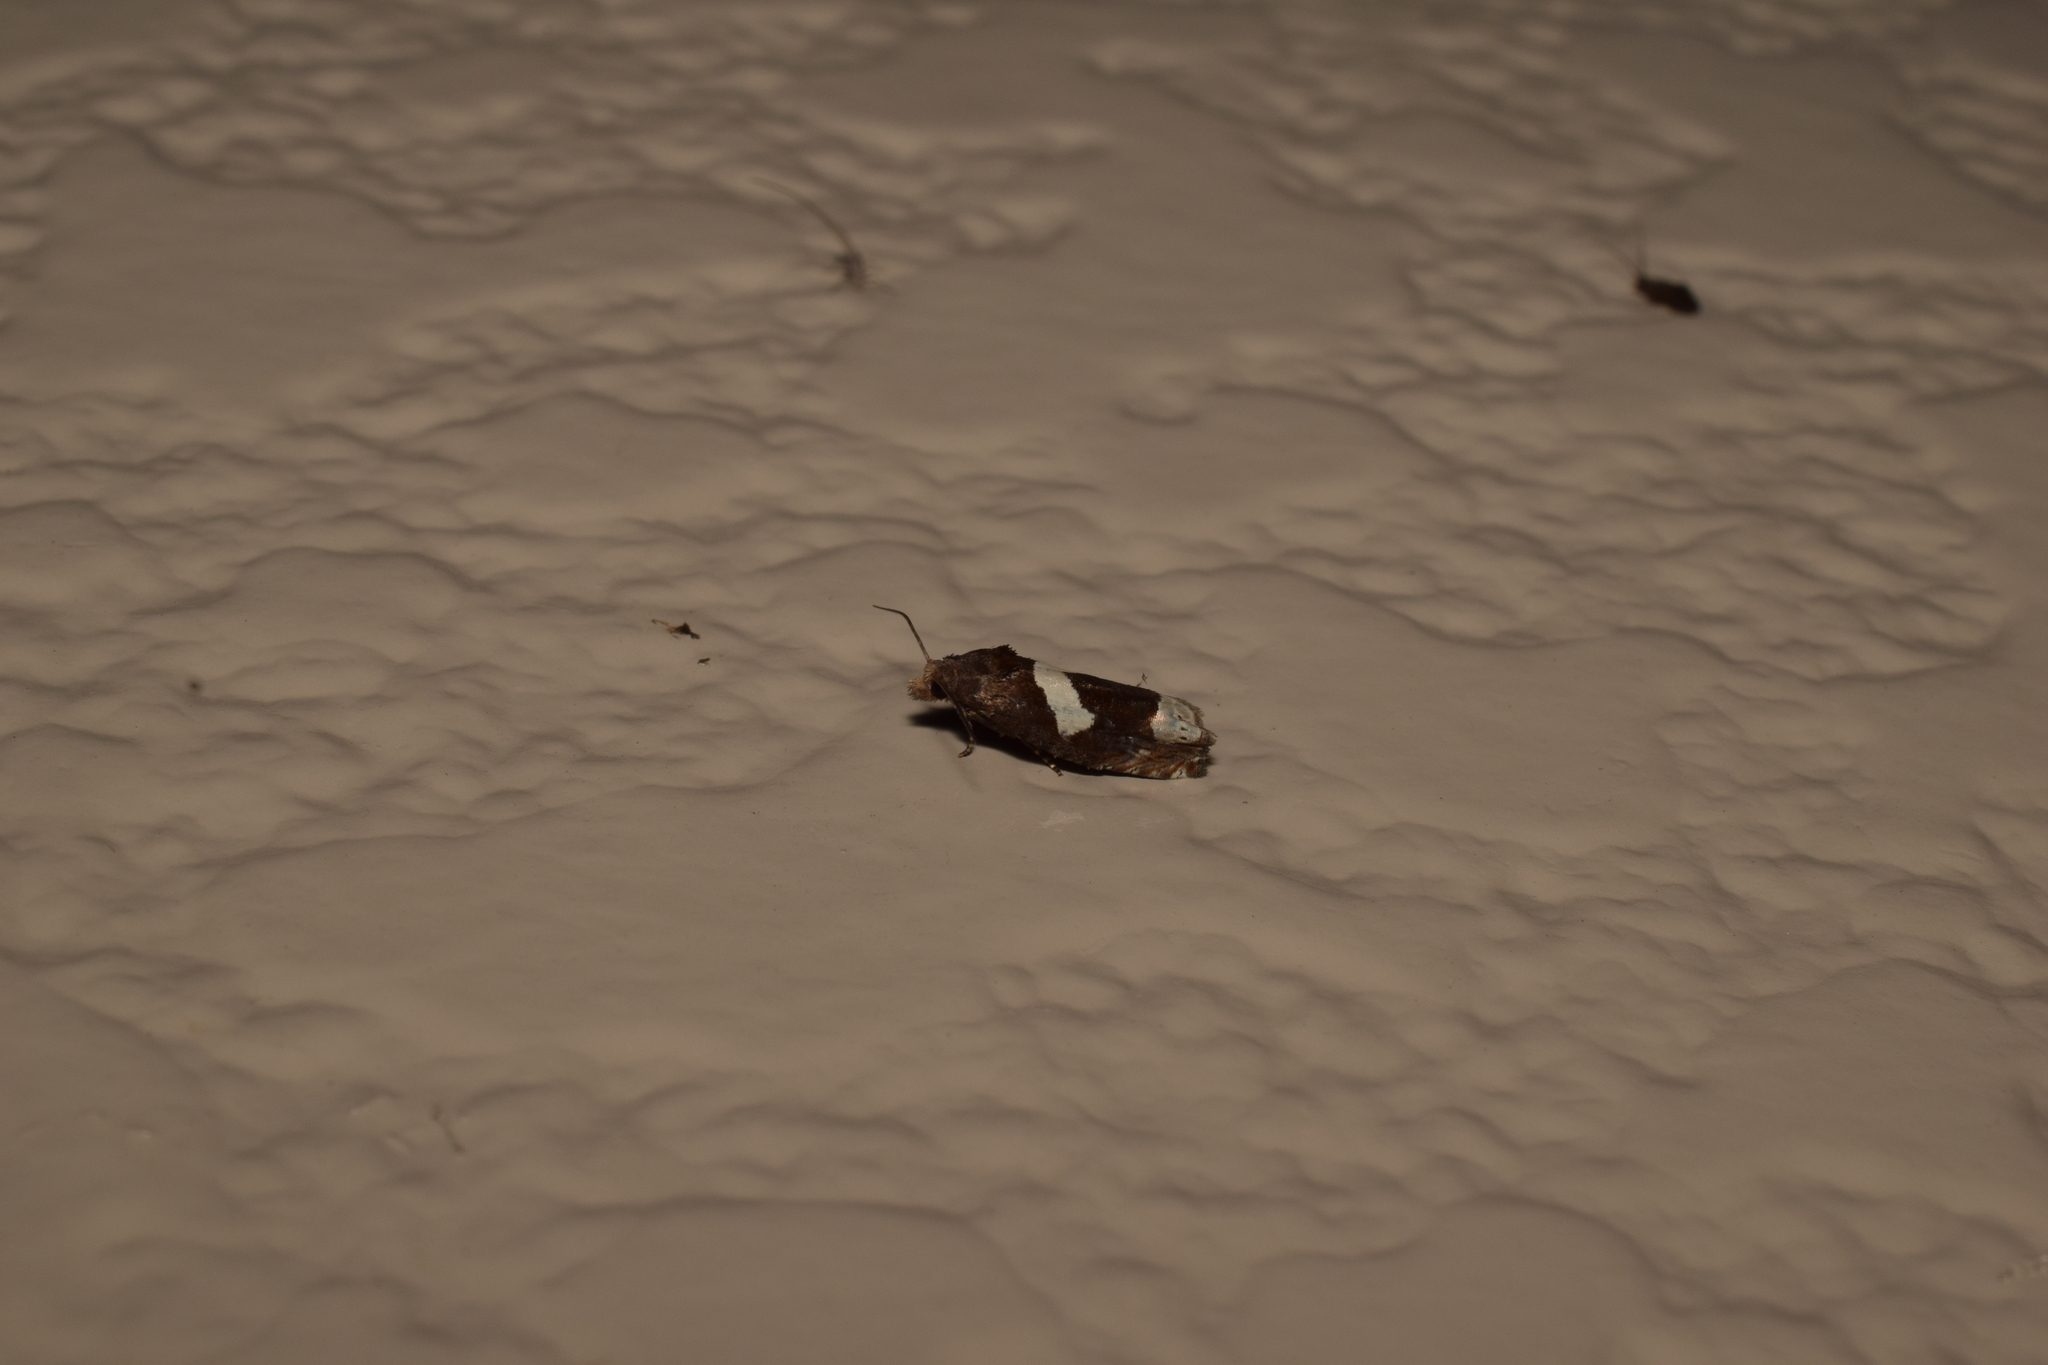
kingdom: Animalia
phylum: Arthropoda
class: Insecta
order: Lepidoptera
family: Tortricidae
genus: Epiblema
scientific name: Epiblema foenella
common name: White-foot bell
